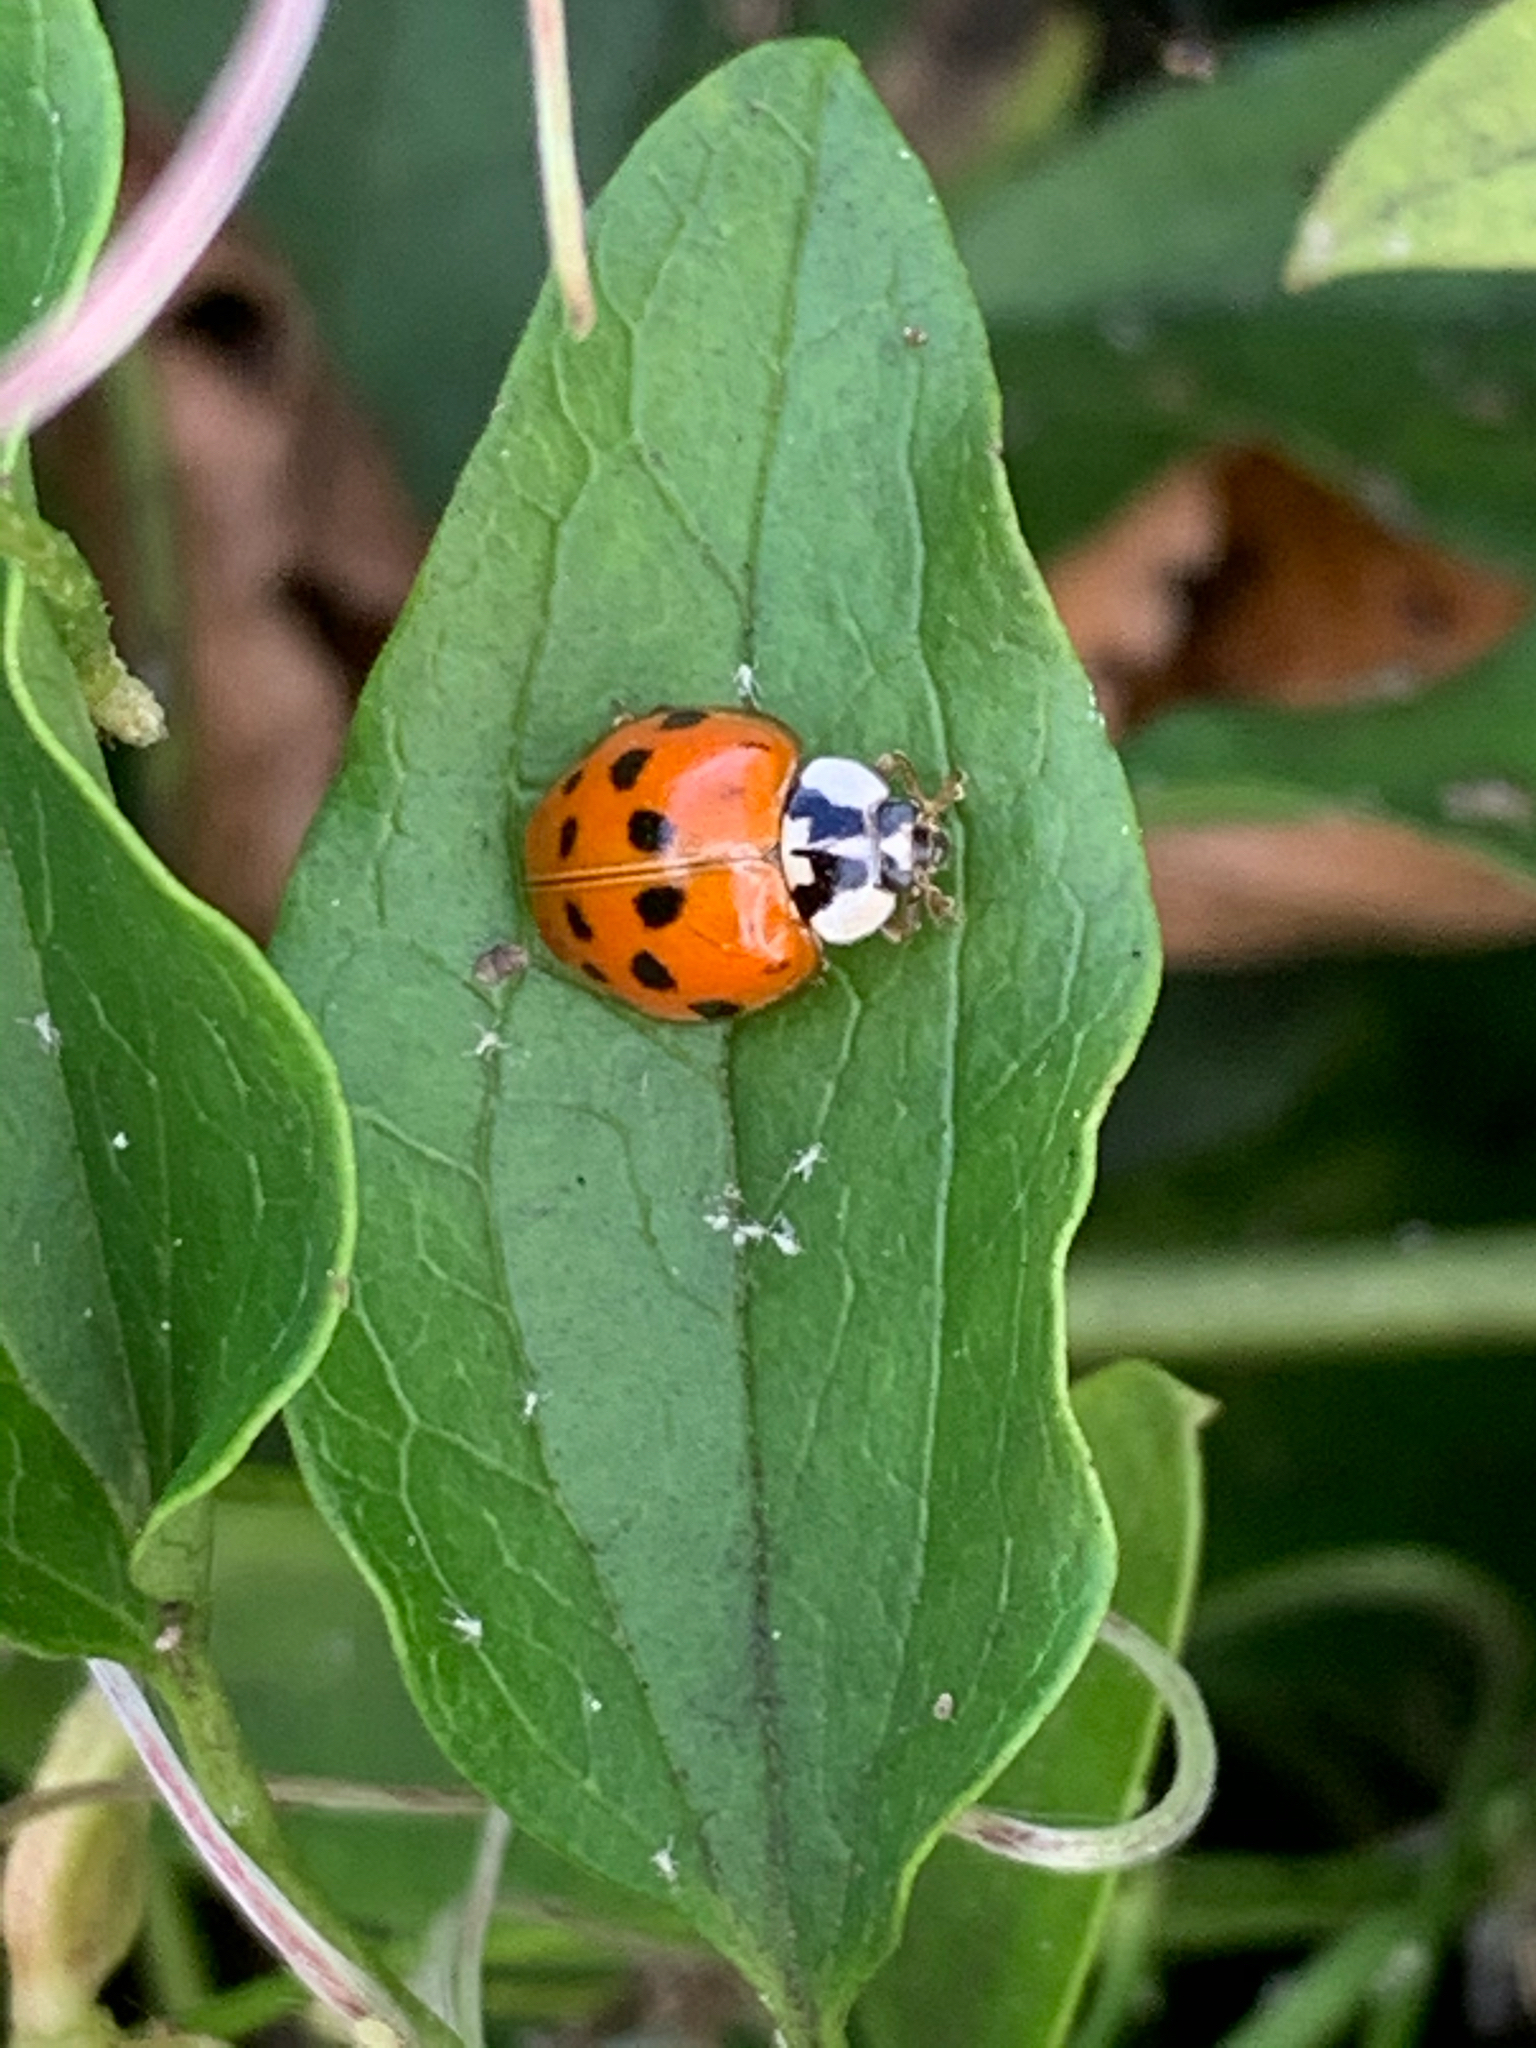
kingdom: Animalia
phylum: Arthropoda
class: Insecta
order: Coleoptera
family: Coccinellidae
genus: Harmonia
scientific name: Harmonia axyridis
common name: Harlequin ladybird
